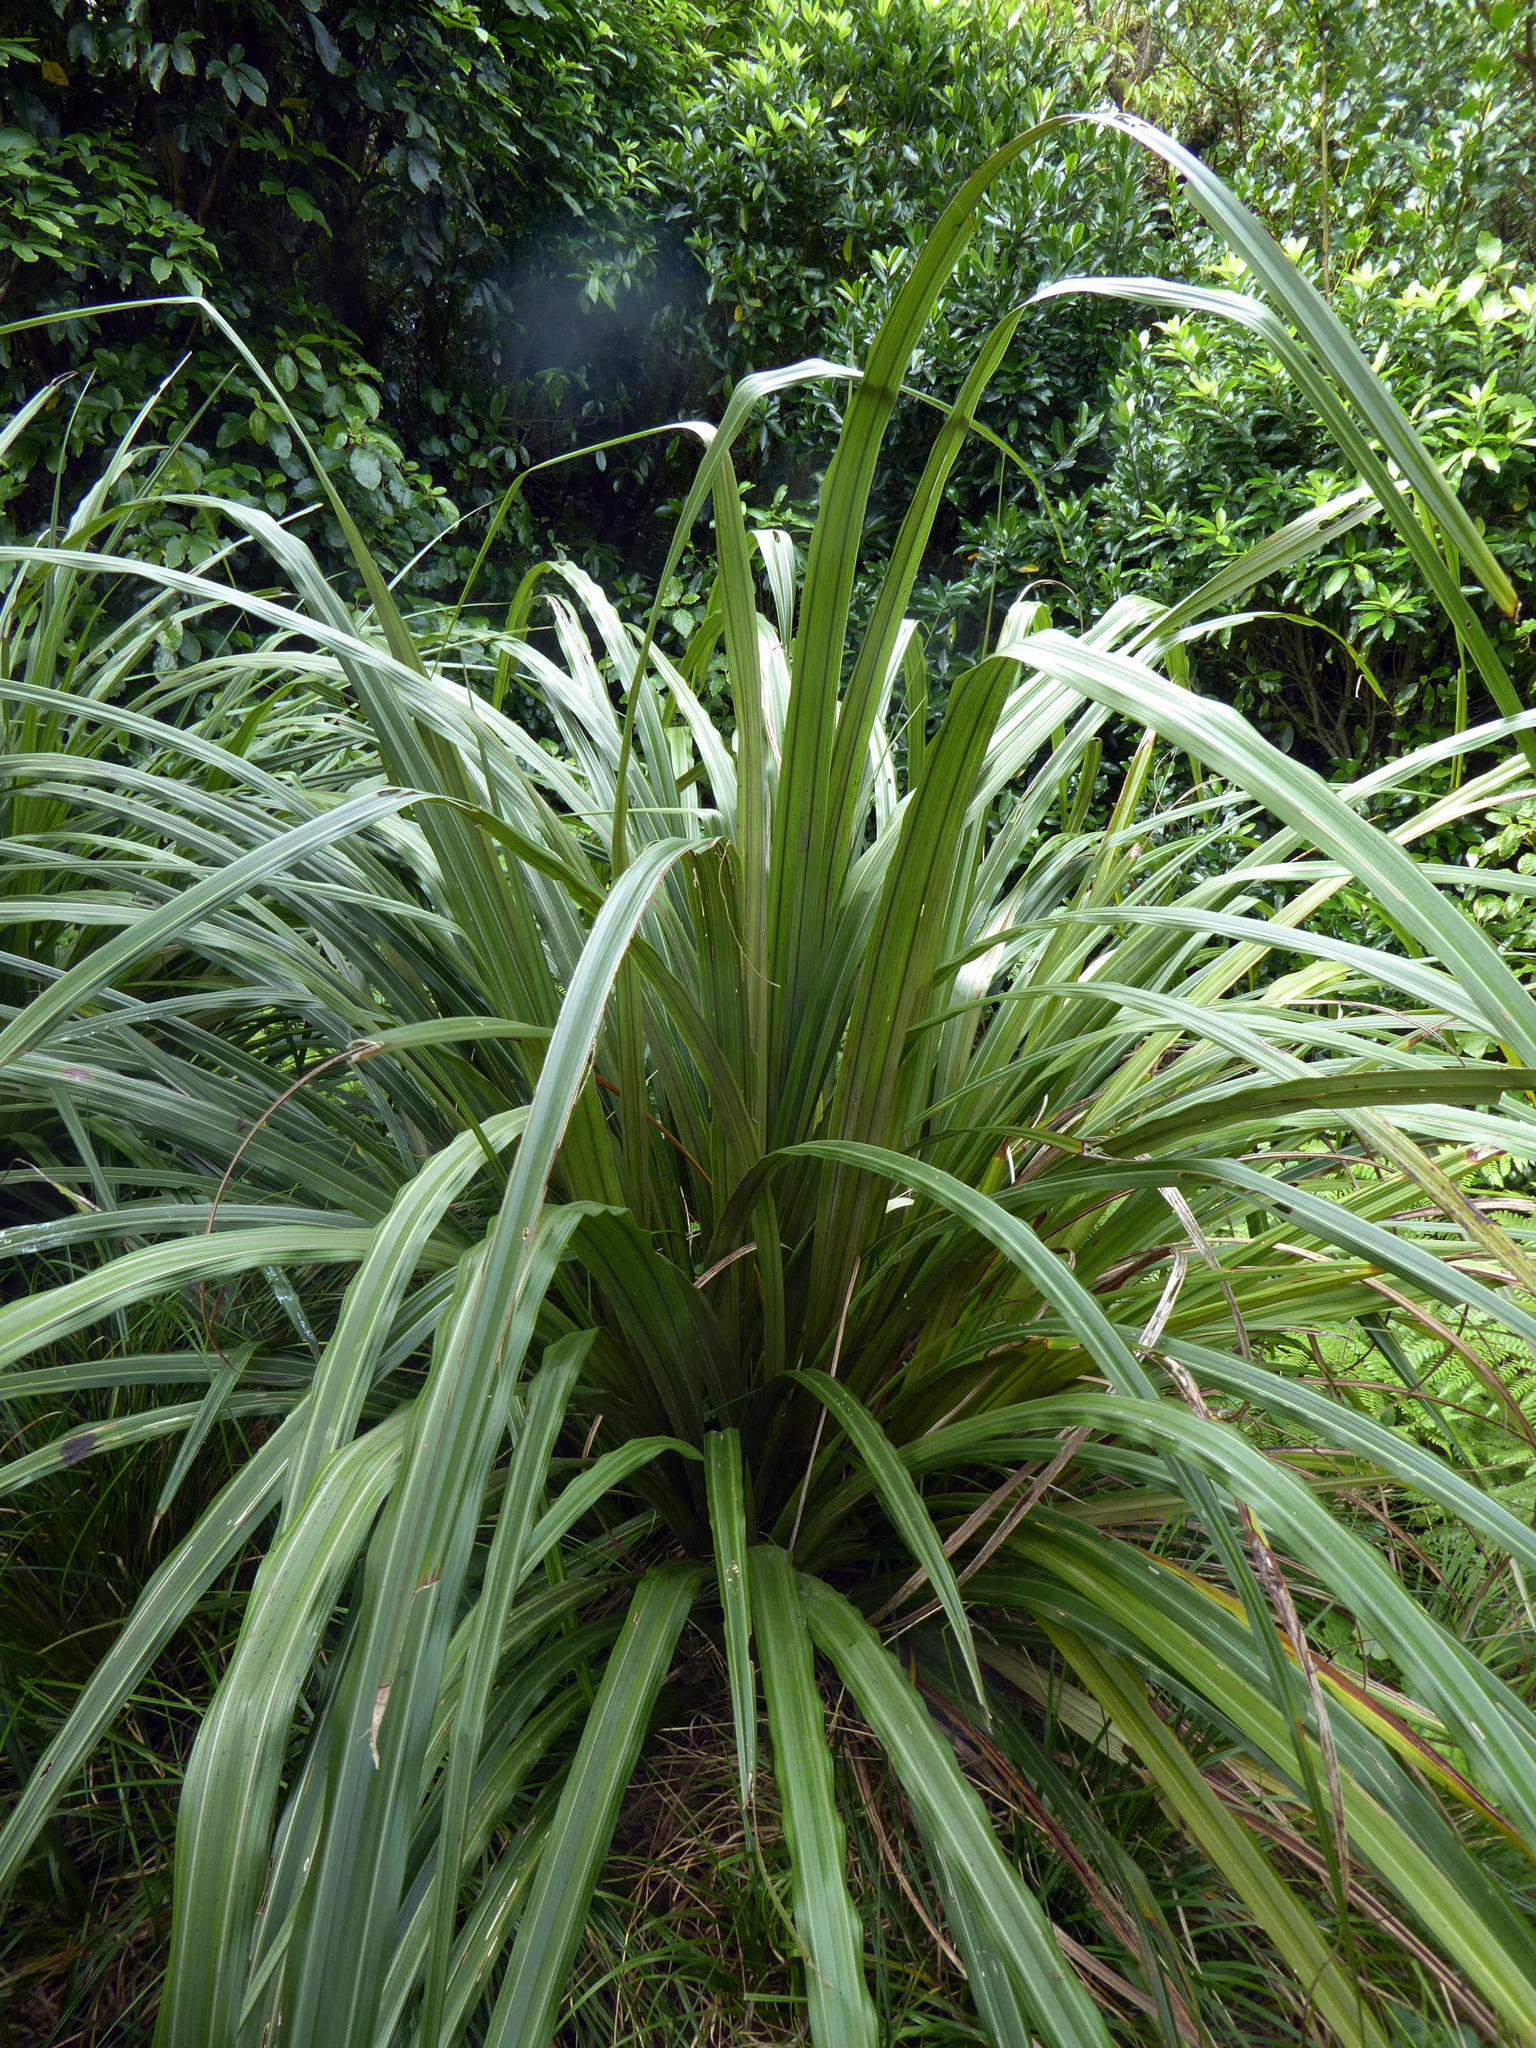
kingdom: Plantae
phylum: Tracheophyta
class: Liliopsida
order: Asparagales
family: Asteliaceae
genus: Astelia
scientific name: Astelia fragrans
